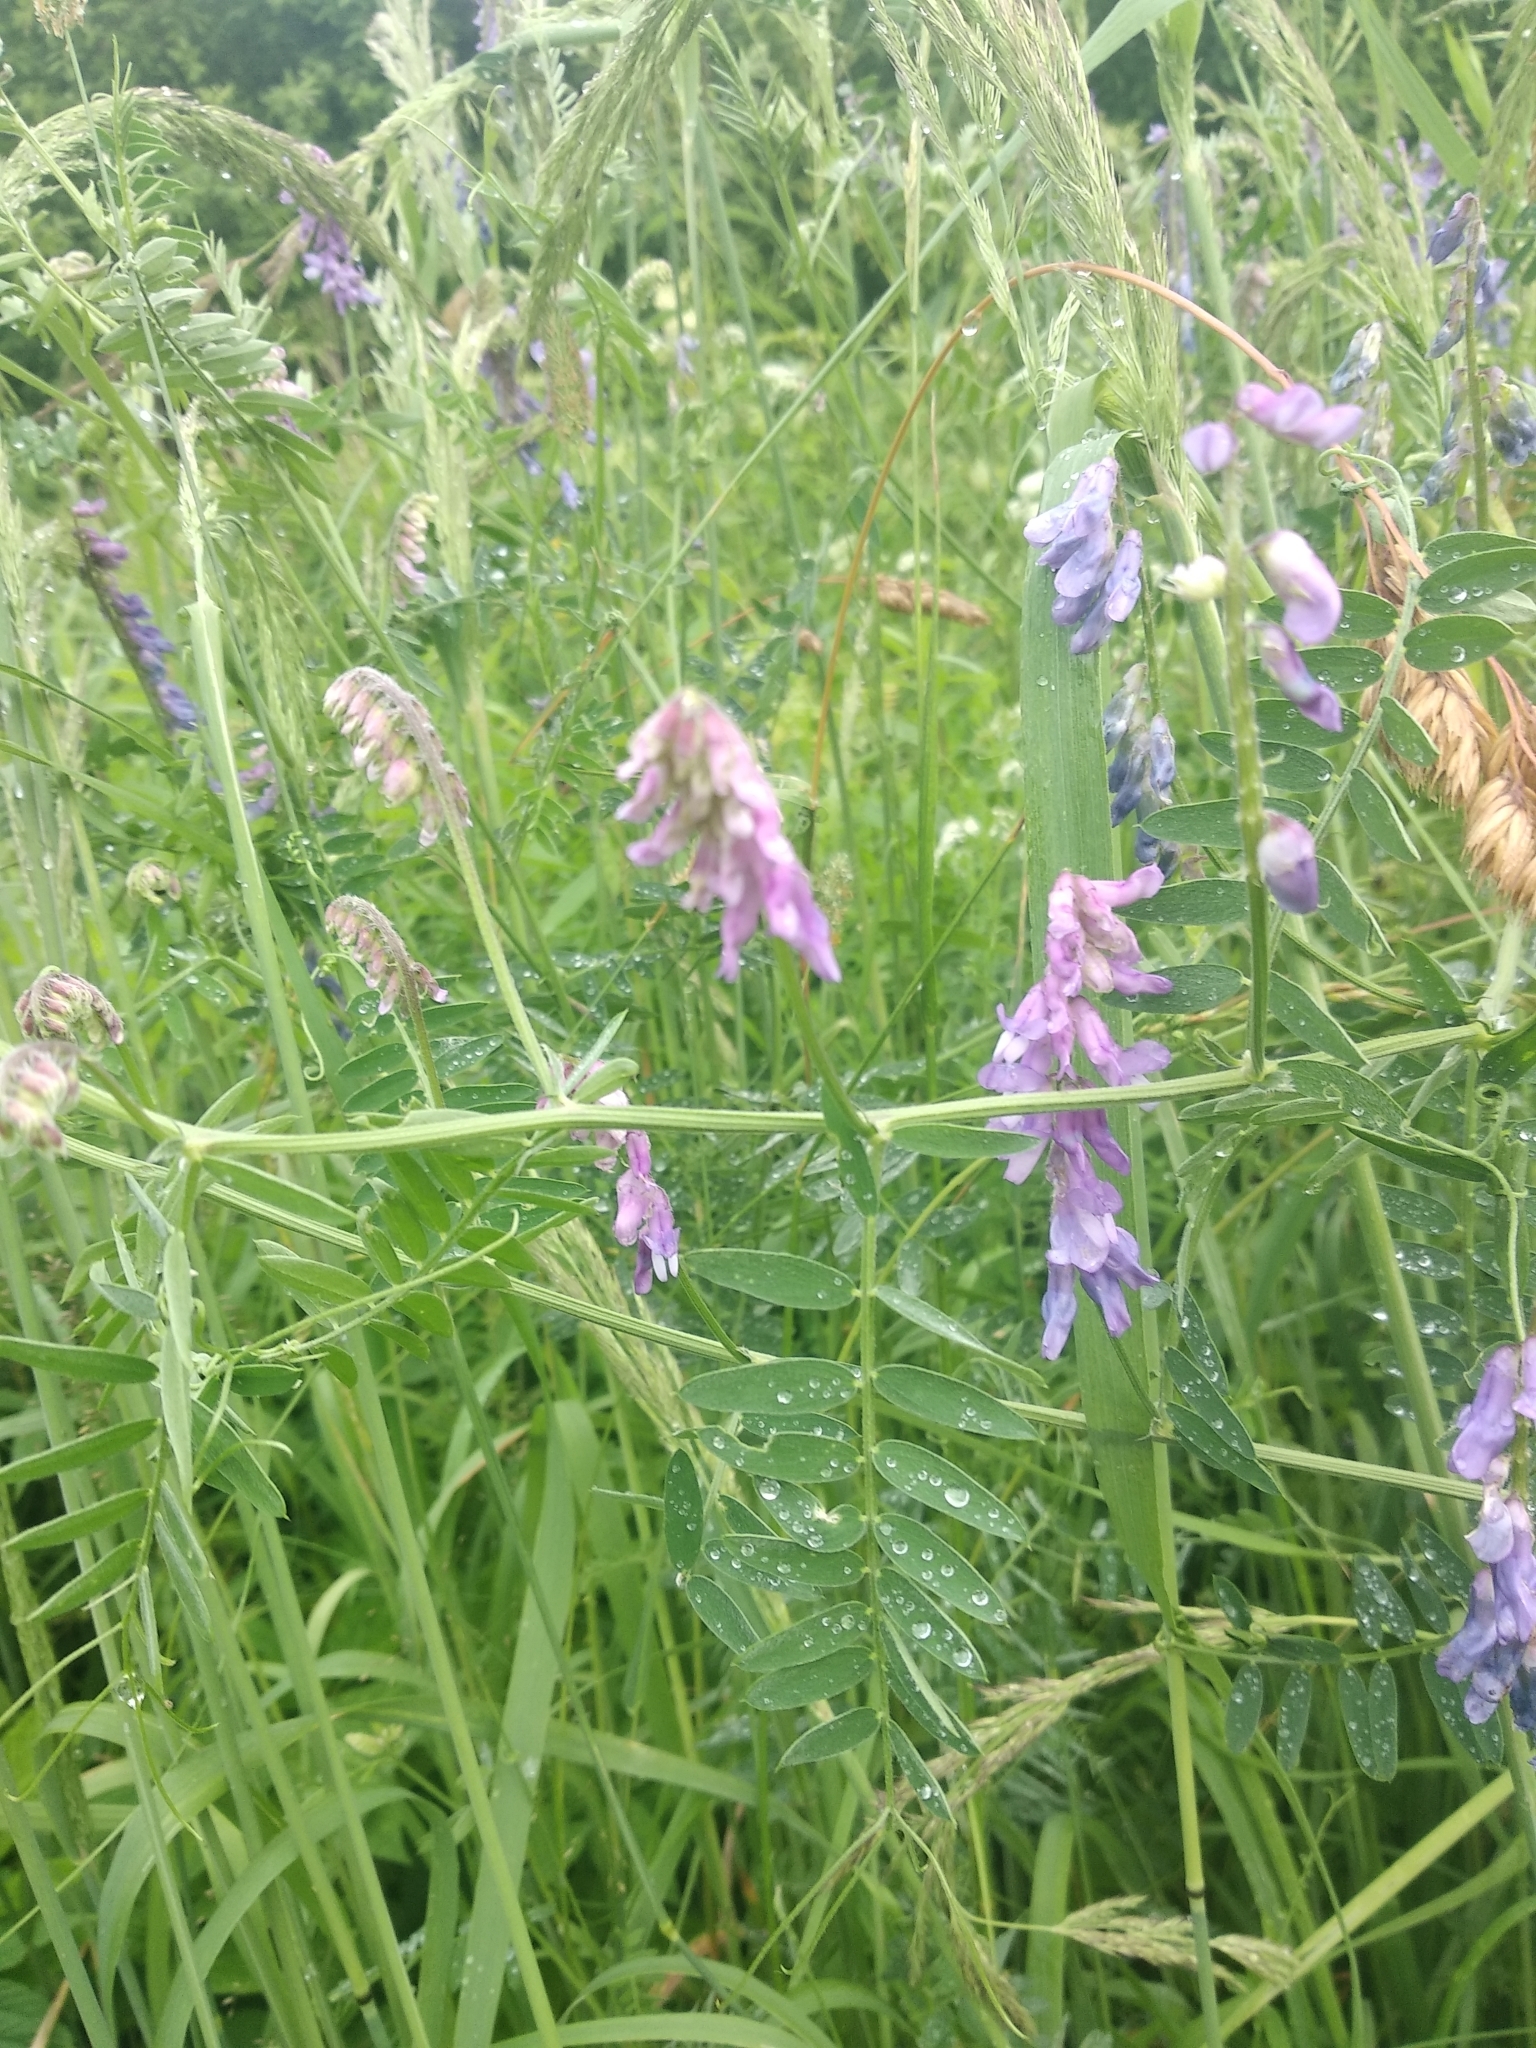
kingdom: Plantae
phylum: Tracheophyta
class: Magnoliopsida
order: Fabales
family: Fabaceae
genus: Vicia
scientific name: Vicia cracca
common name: Bird vetch
